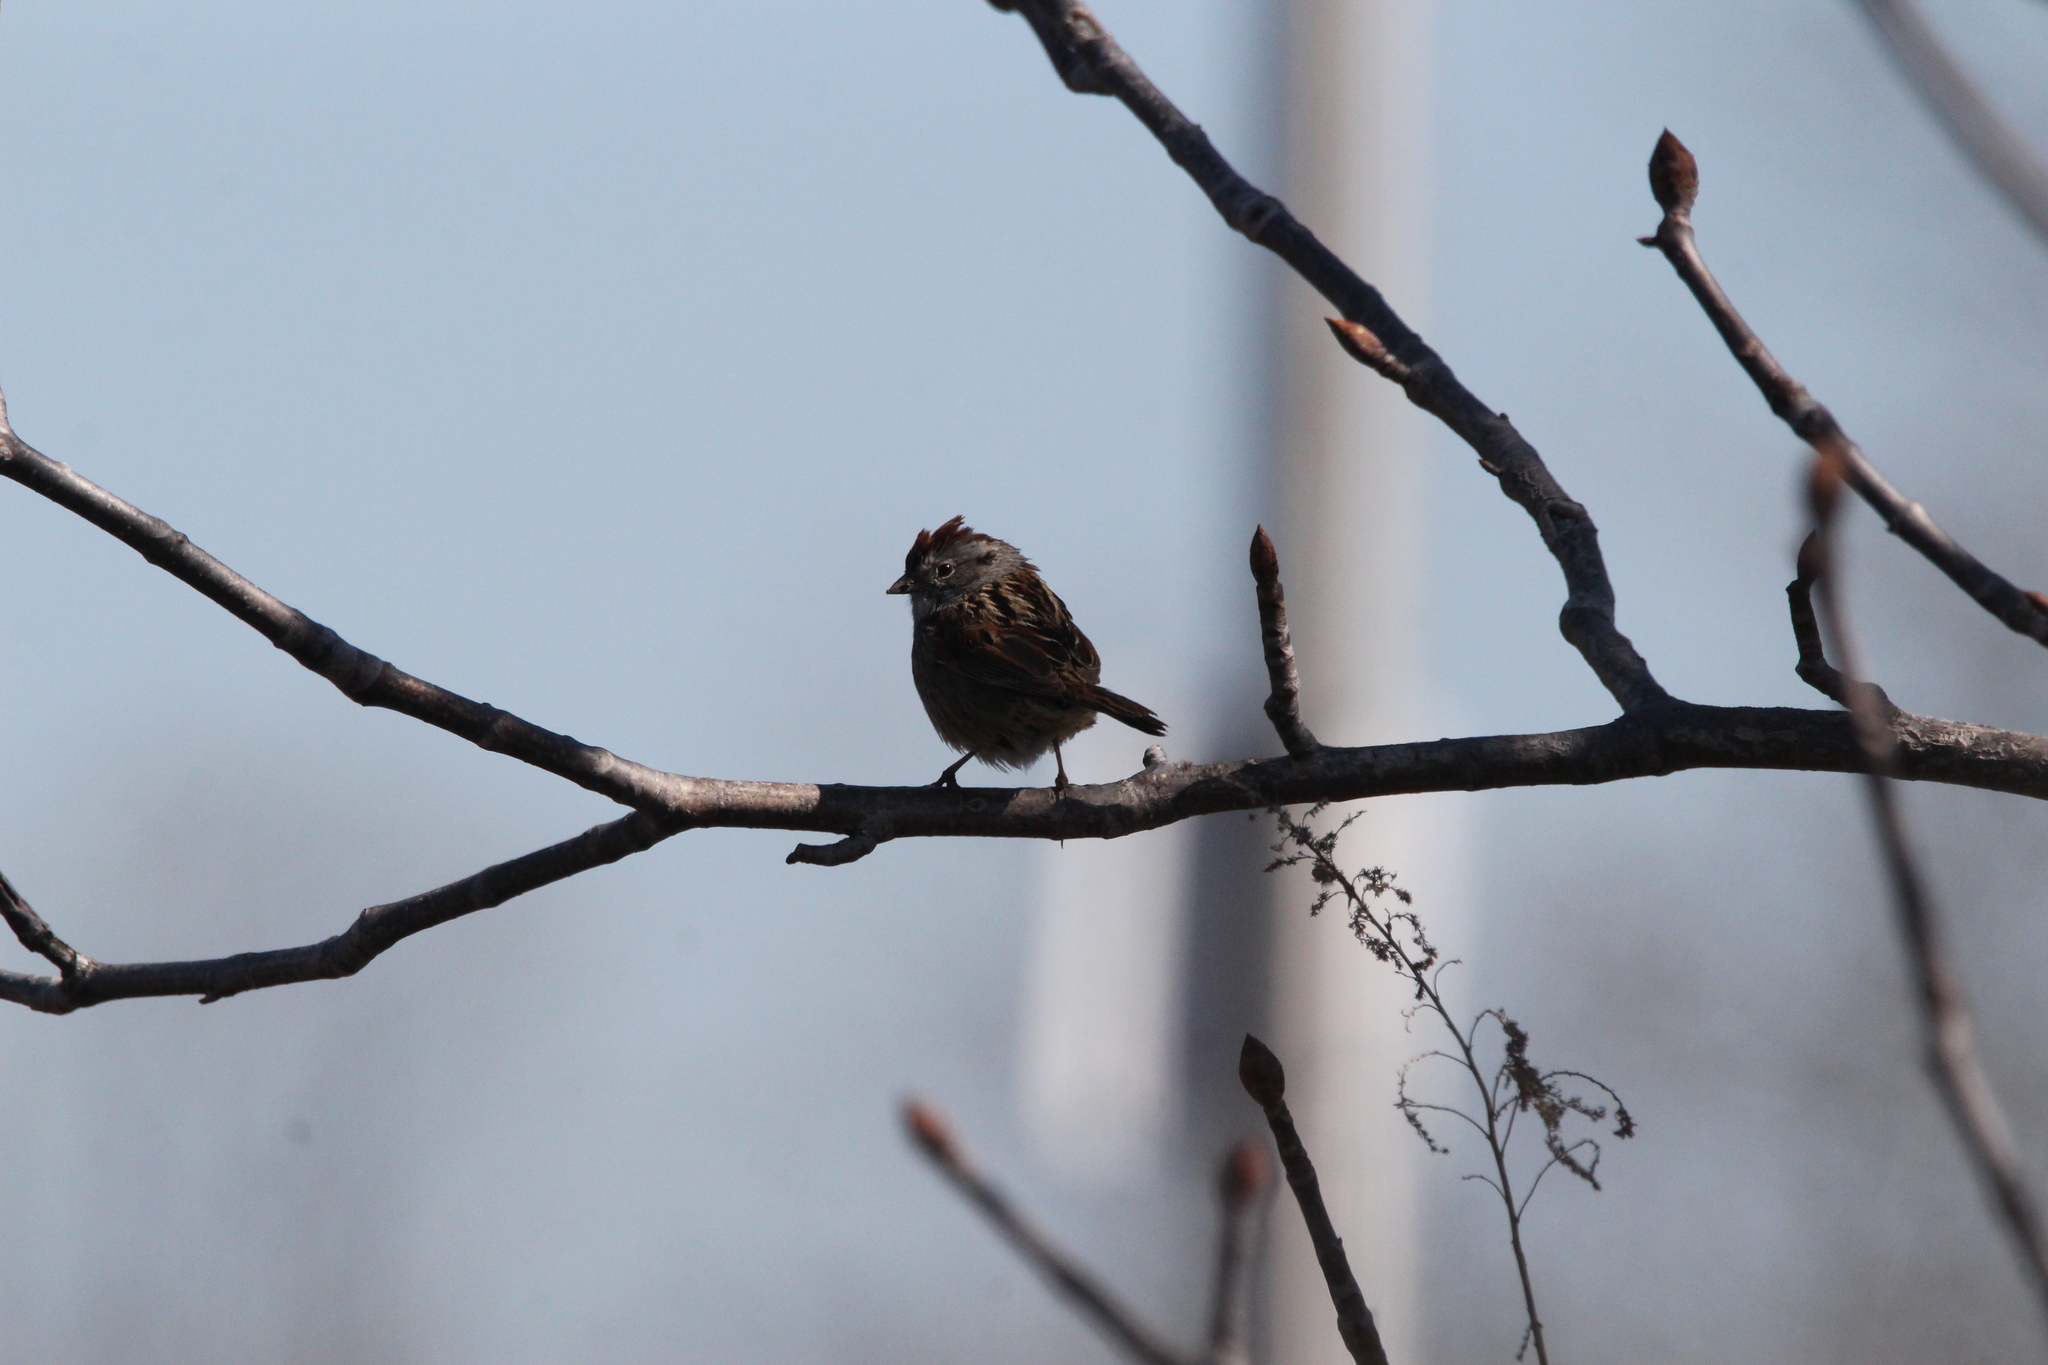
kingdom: Animalia
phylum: Chordata
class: Aves
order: Passeriformes
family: Passerellidae
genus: Melospiza
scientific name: Melospiza georgiana
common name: Swamp sparrow
